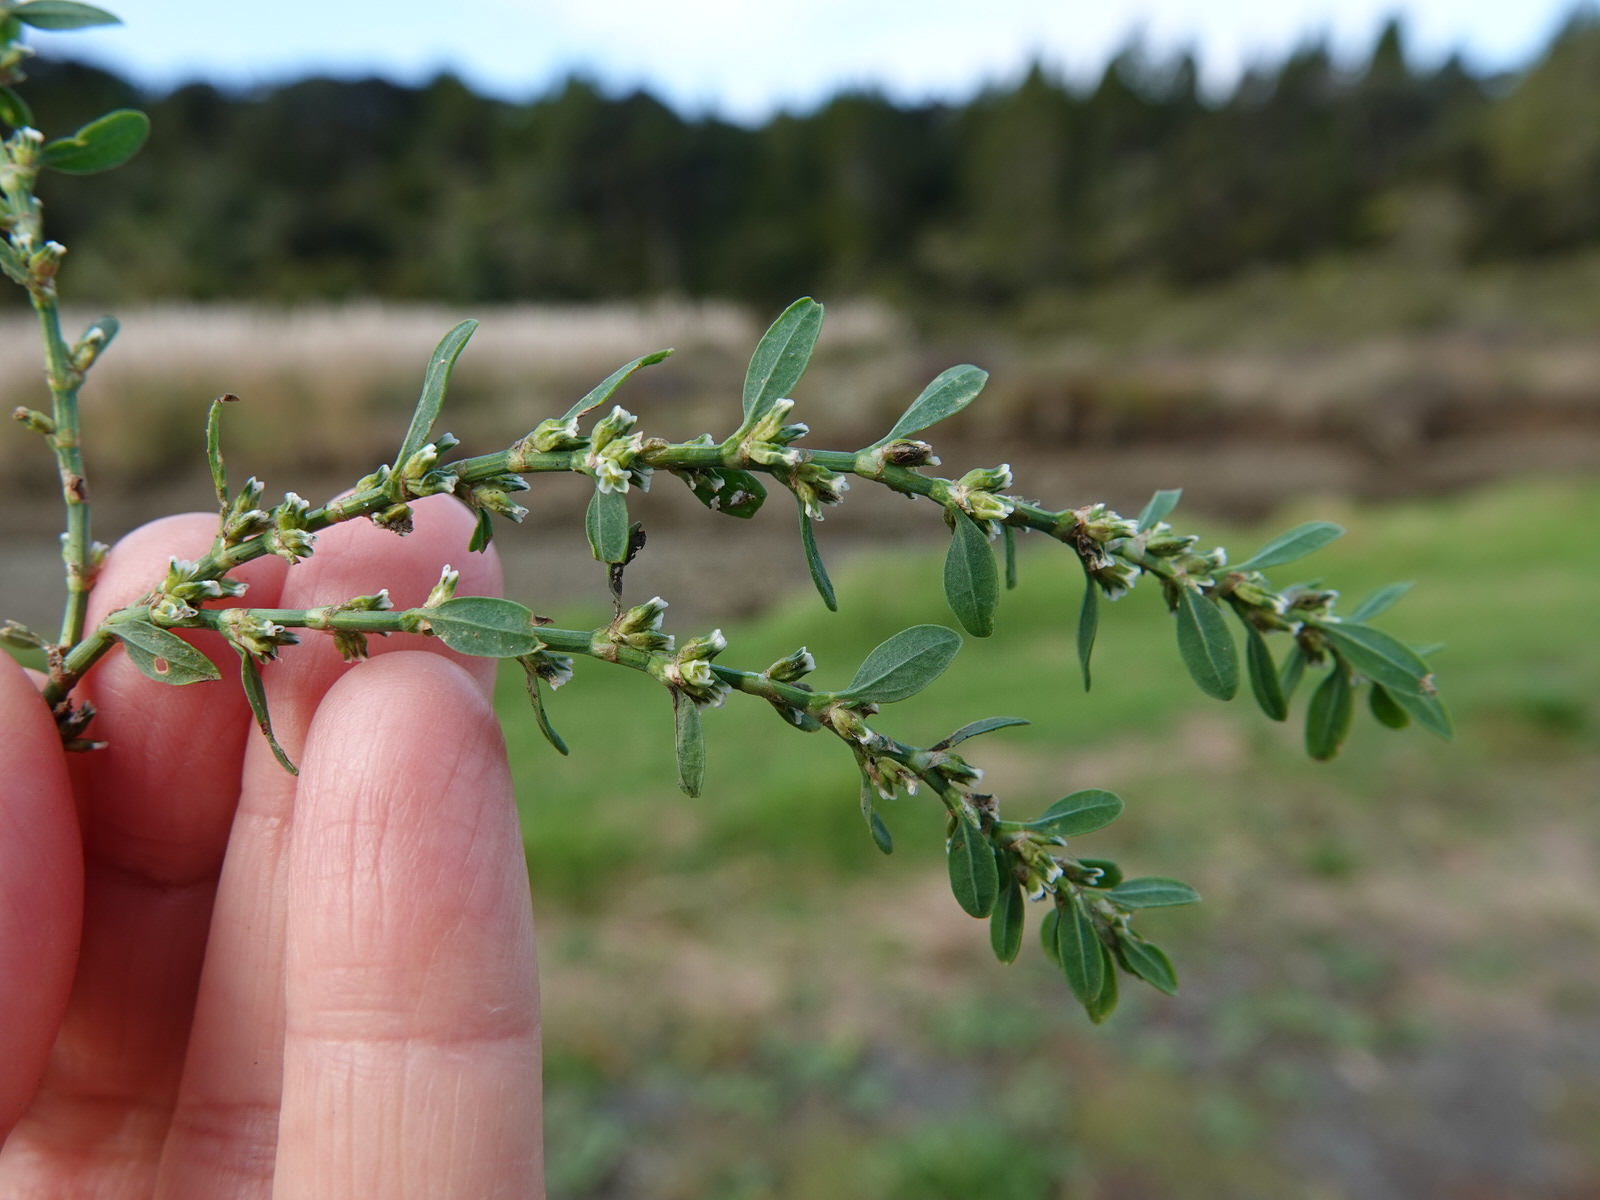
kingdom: Plantae
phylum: Tracheophyta
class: Magnoliopsida
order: Caryophyllales
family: Polygonaceae
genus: Polygonum
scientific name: Polygonum aviculare
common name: Prostrate knotweed
